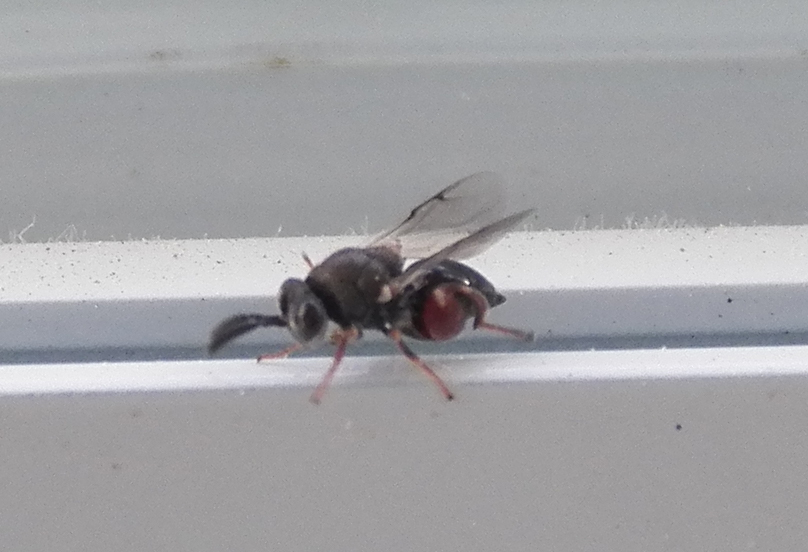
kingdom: Animalia
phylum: Arthropoda
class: Insecta
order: Hymenoptera
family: Chalcididae
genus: Brachymeria
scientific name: Brachymeria podagrica
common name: Chalcid wasp
